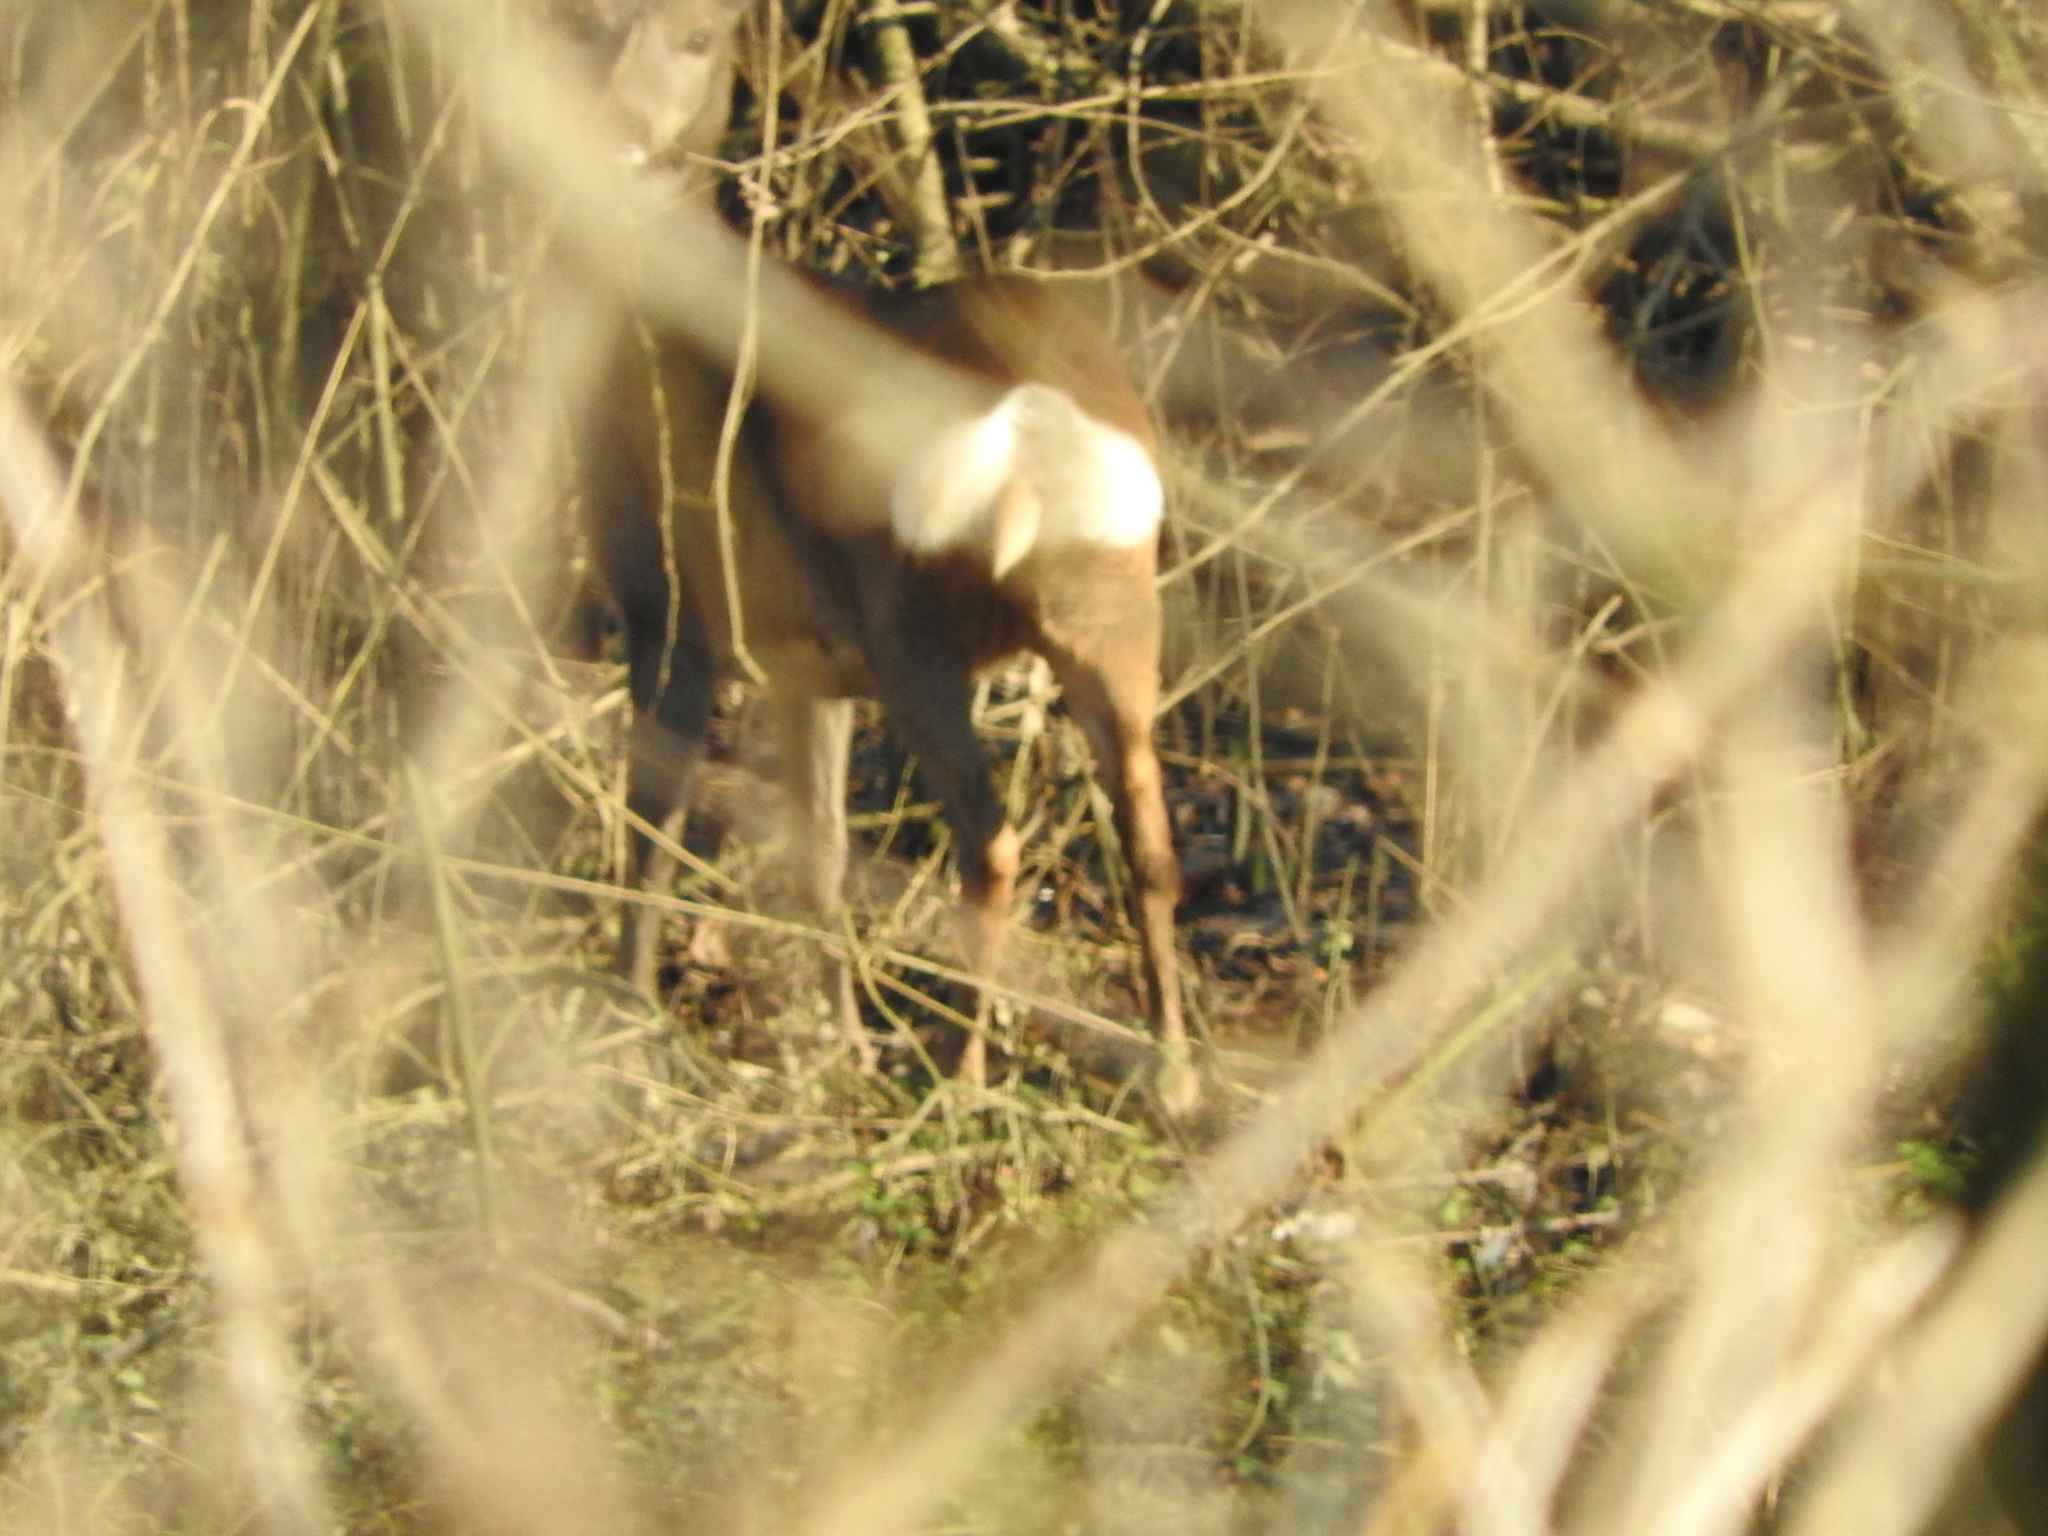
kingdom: Animalia
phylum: Chordata
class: Mammalia
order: Artiodactyla
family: Cervidae
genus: Capreolus
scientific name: Capreolus capreolus
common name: Western roe deer
